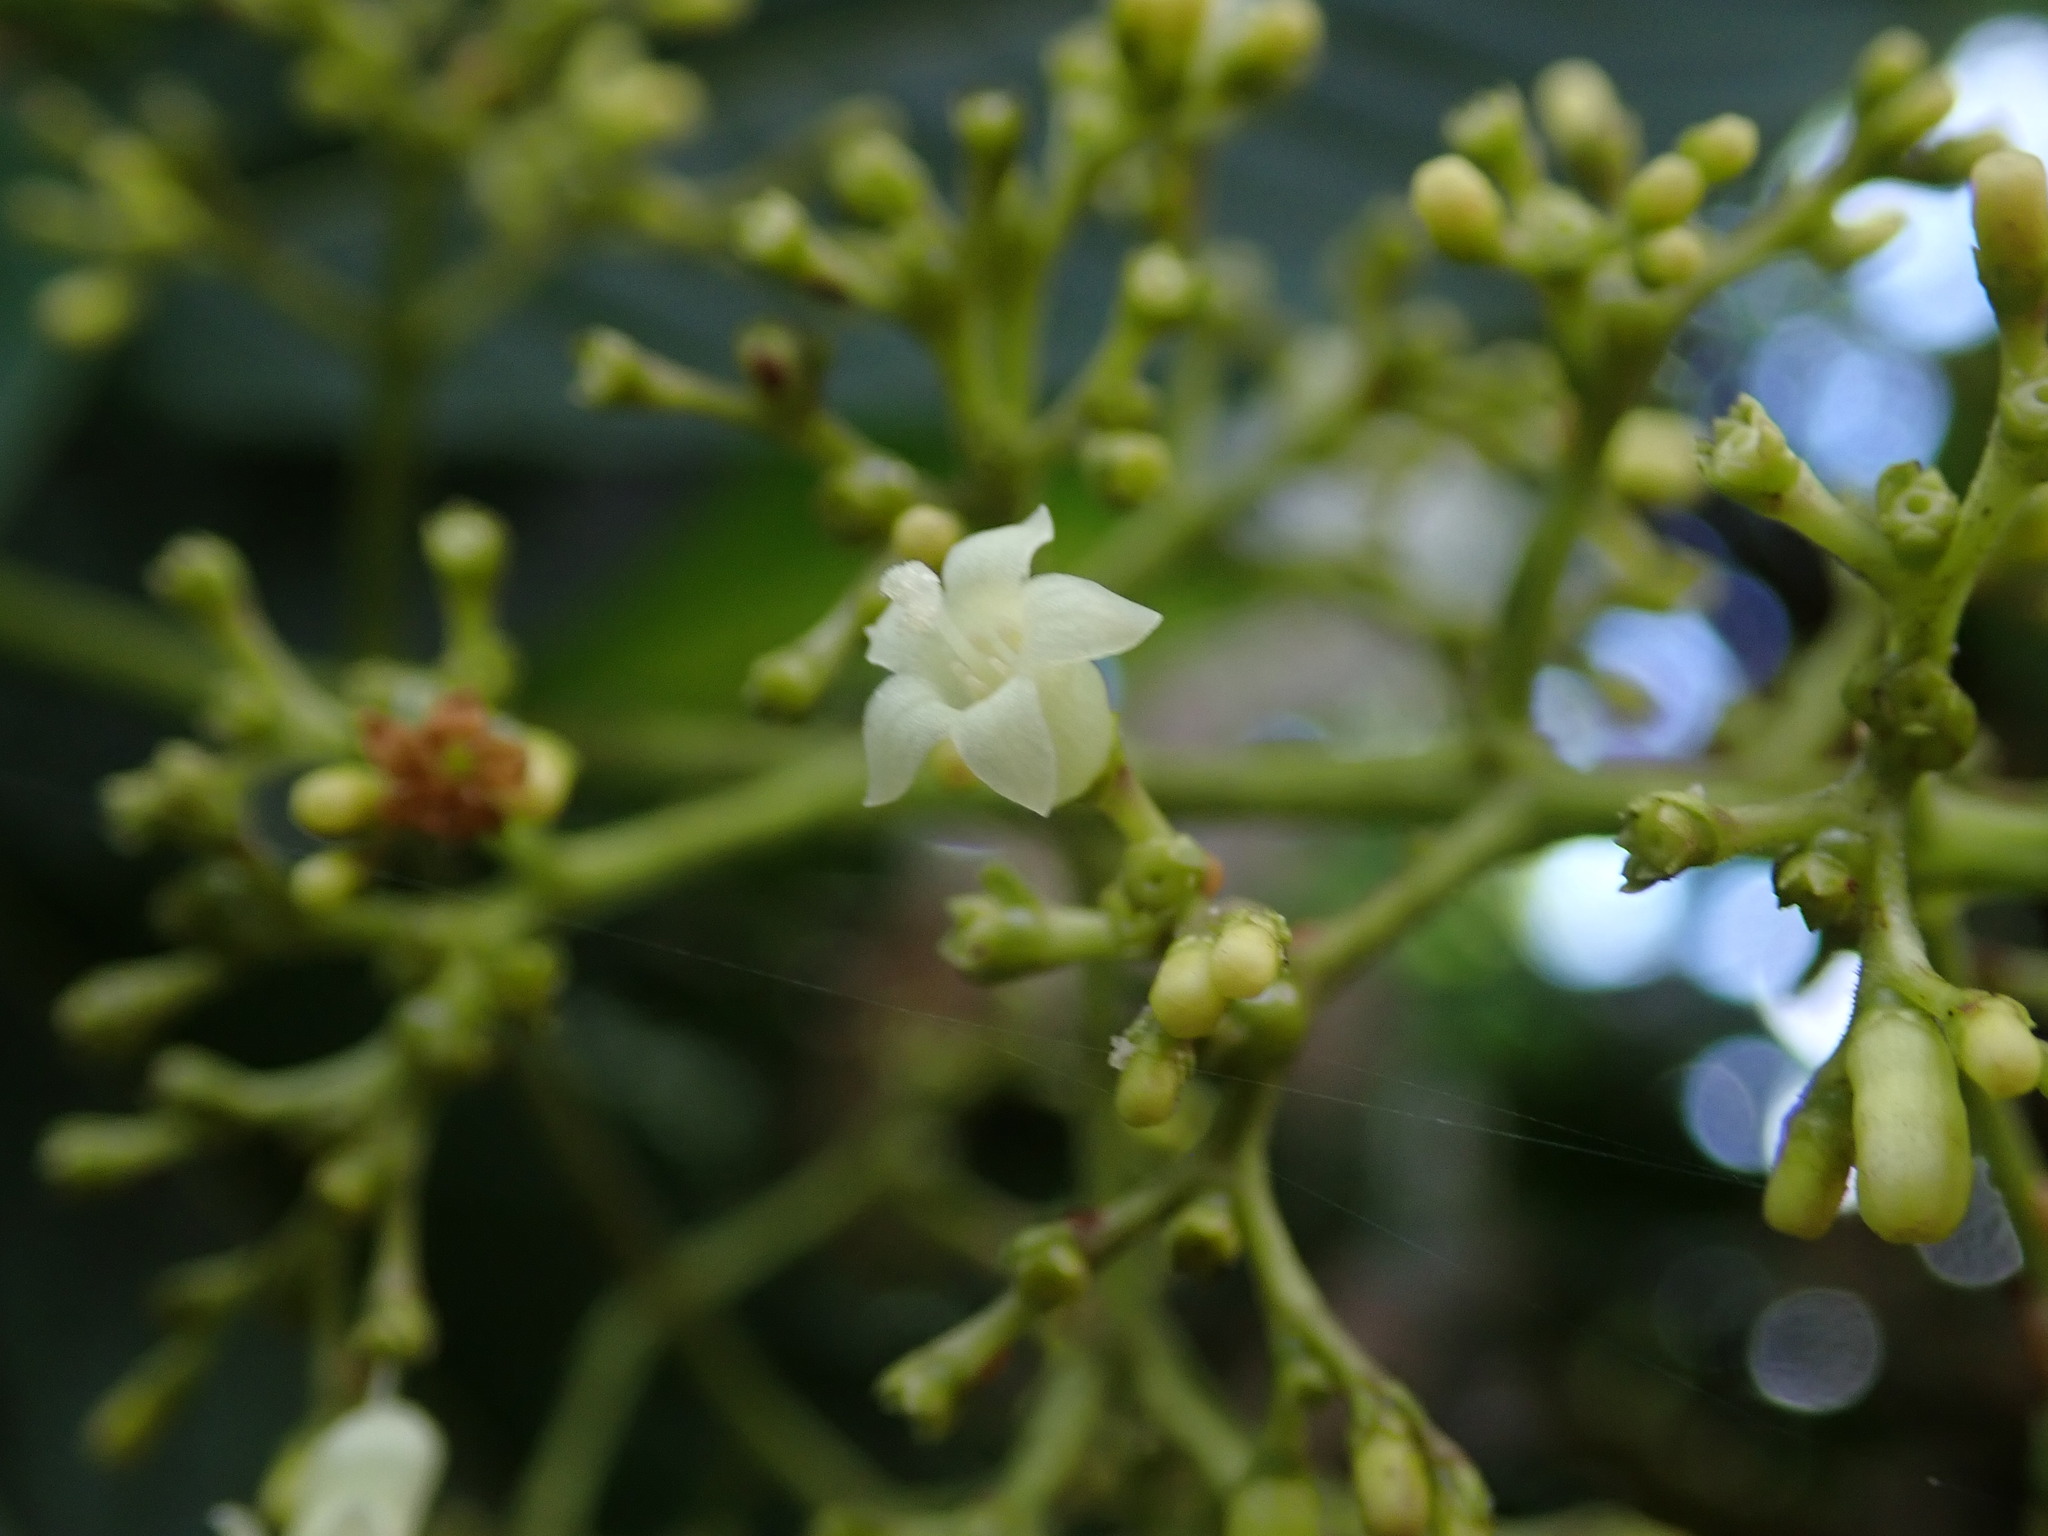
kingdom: Plantae
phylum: Tracheophyta
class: Magnoliopsida
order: Gentianales
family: Rubiaceae
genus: Palicourea
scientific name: Palicourea berteroana
